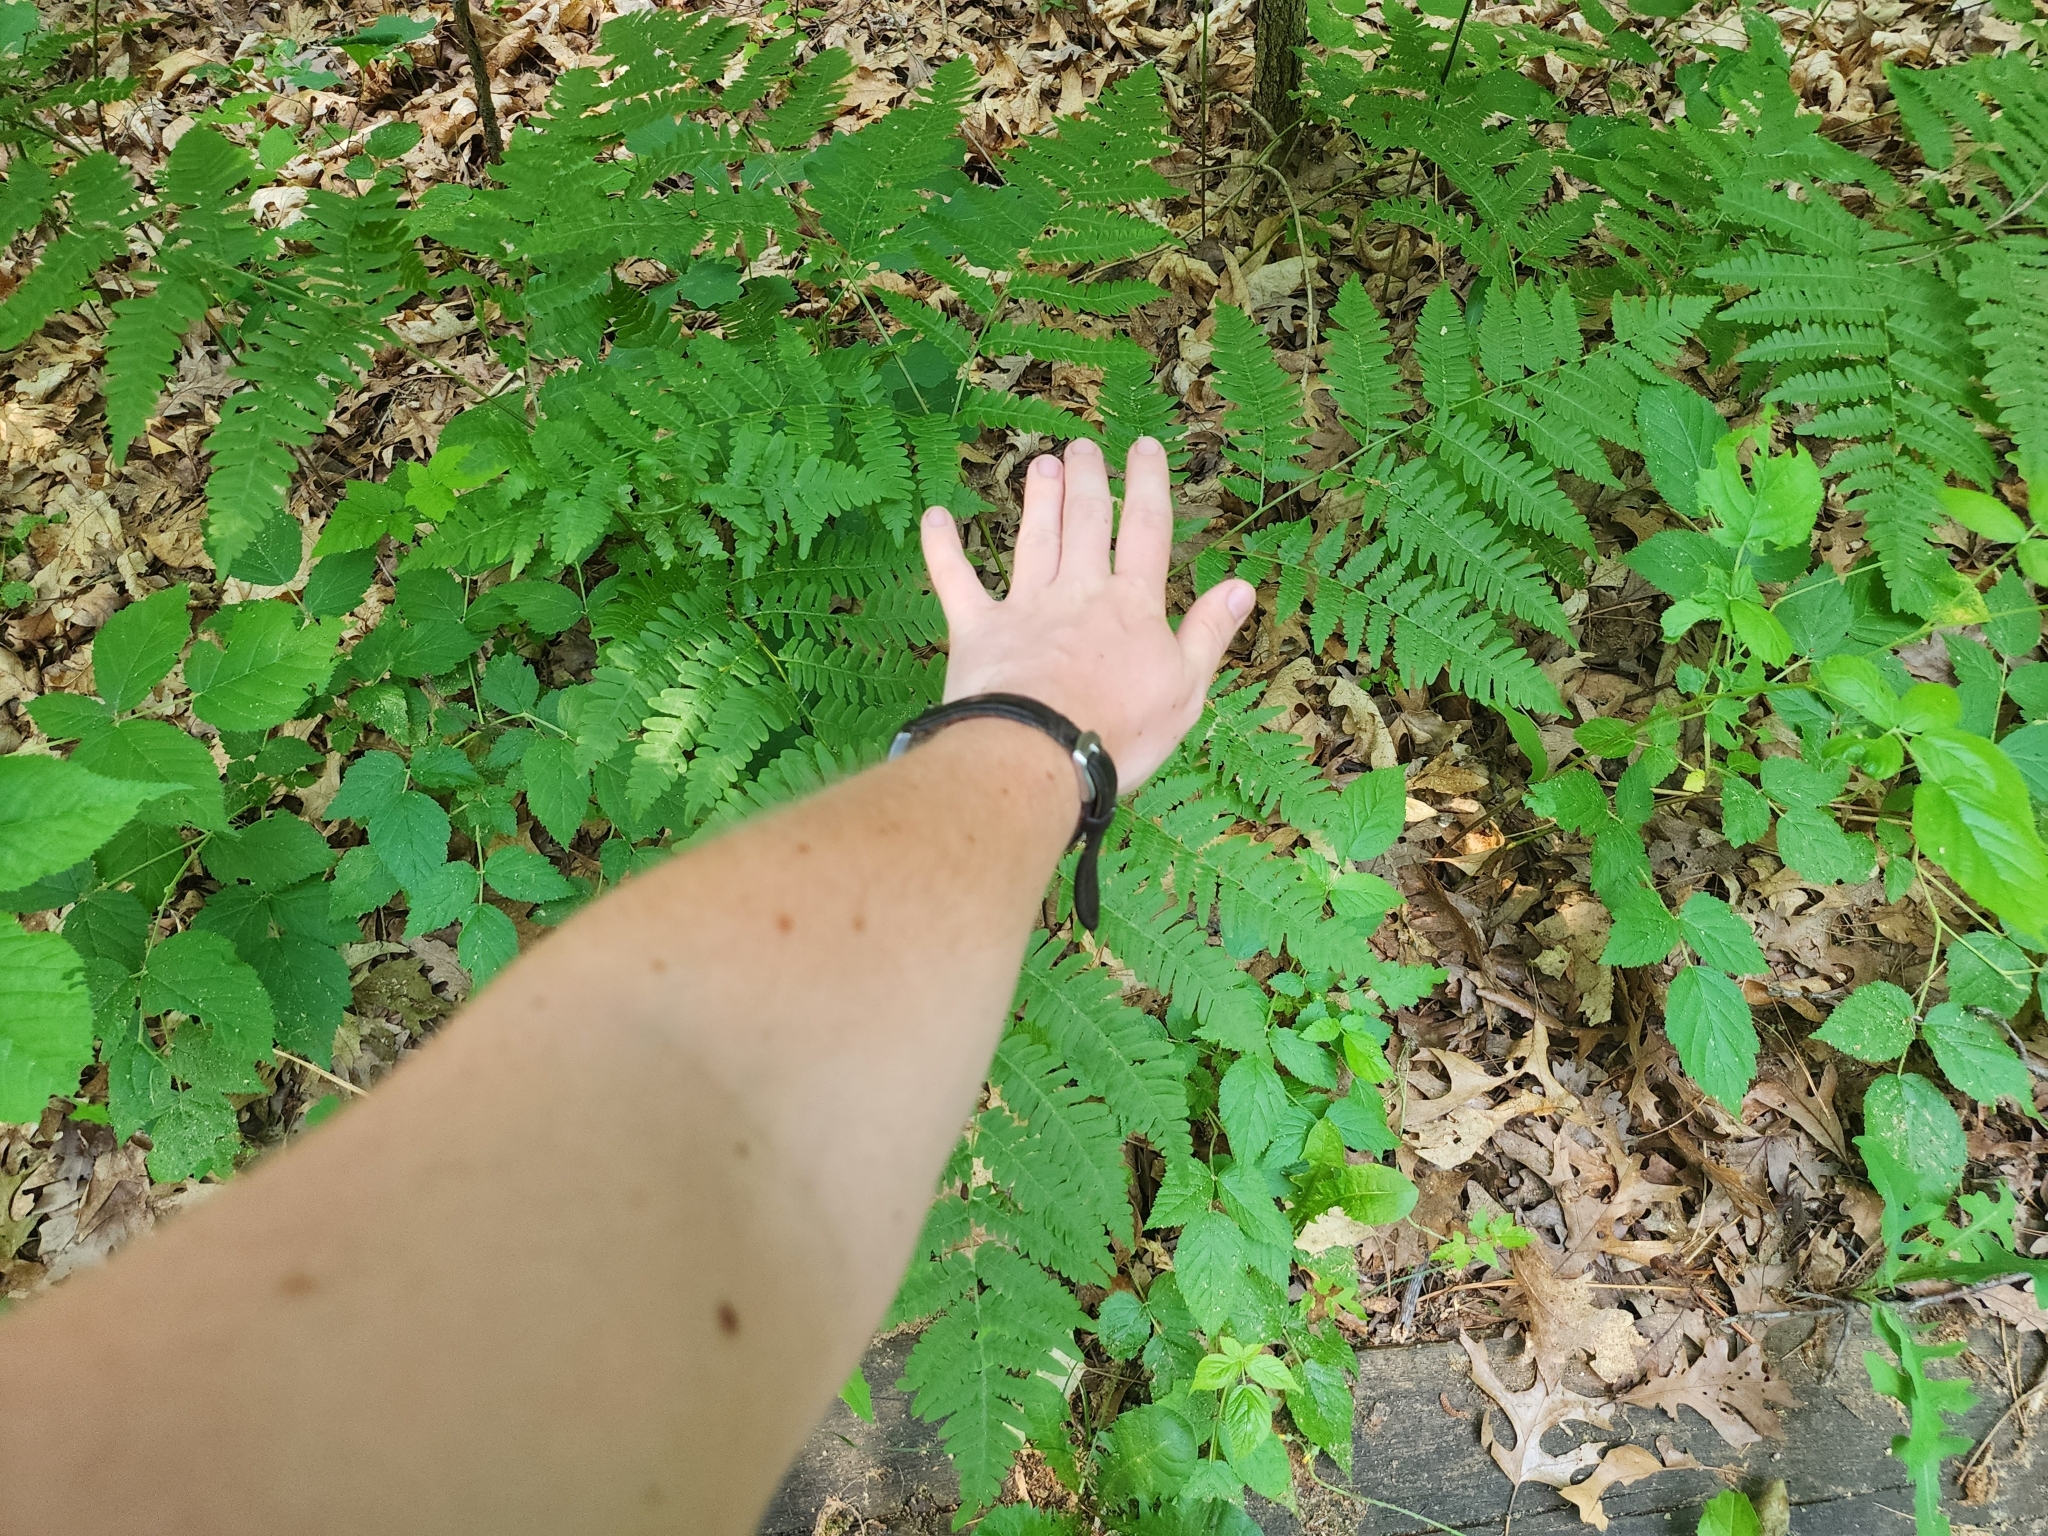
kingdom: Plantae
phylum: Tracheophyta
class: Polypodiopsida
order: Polypodiales
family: Dennstaedtiaceae
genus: Pteridium
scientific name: Pteridium aquilinum
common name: Bracken
